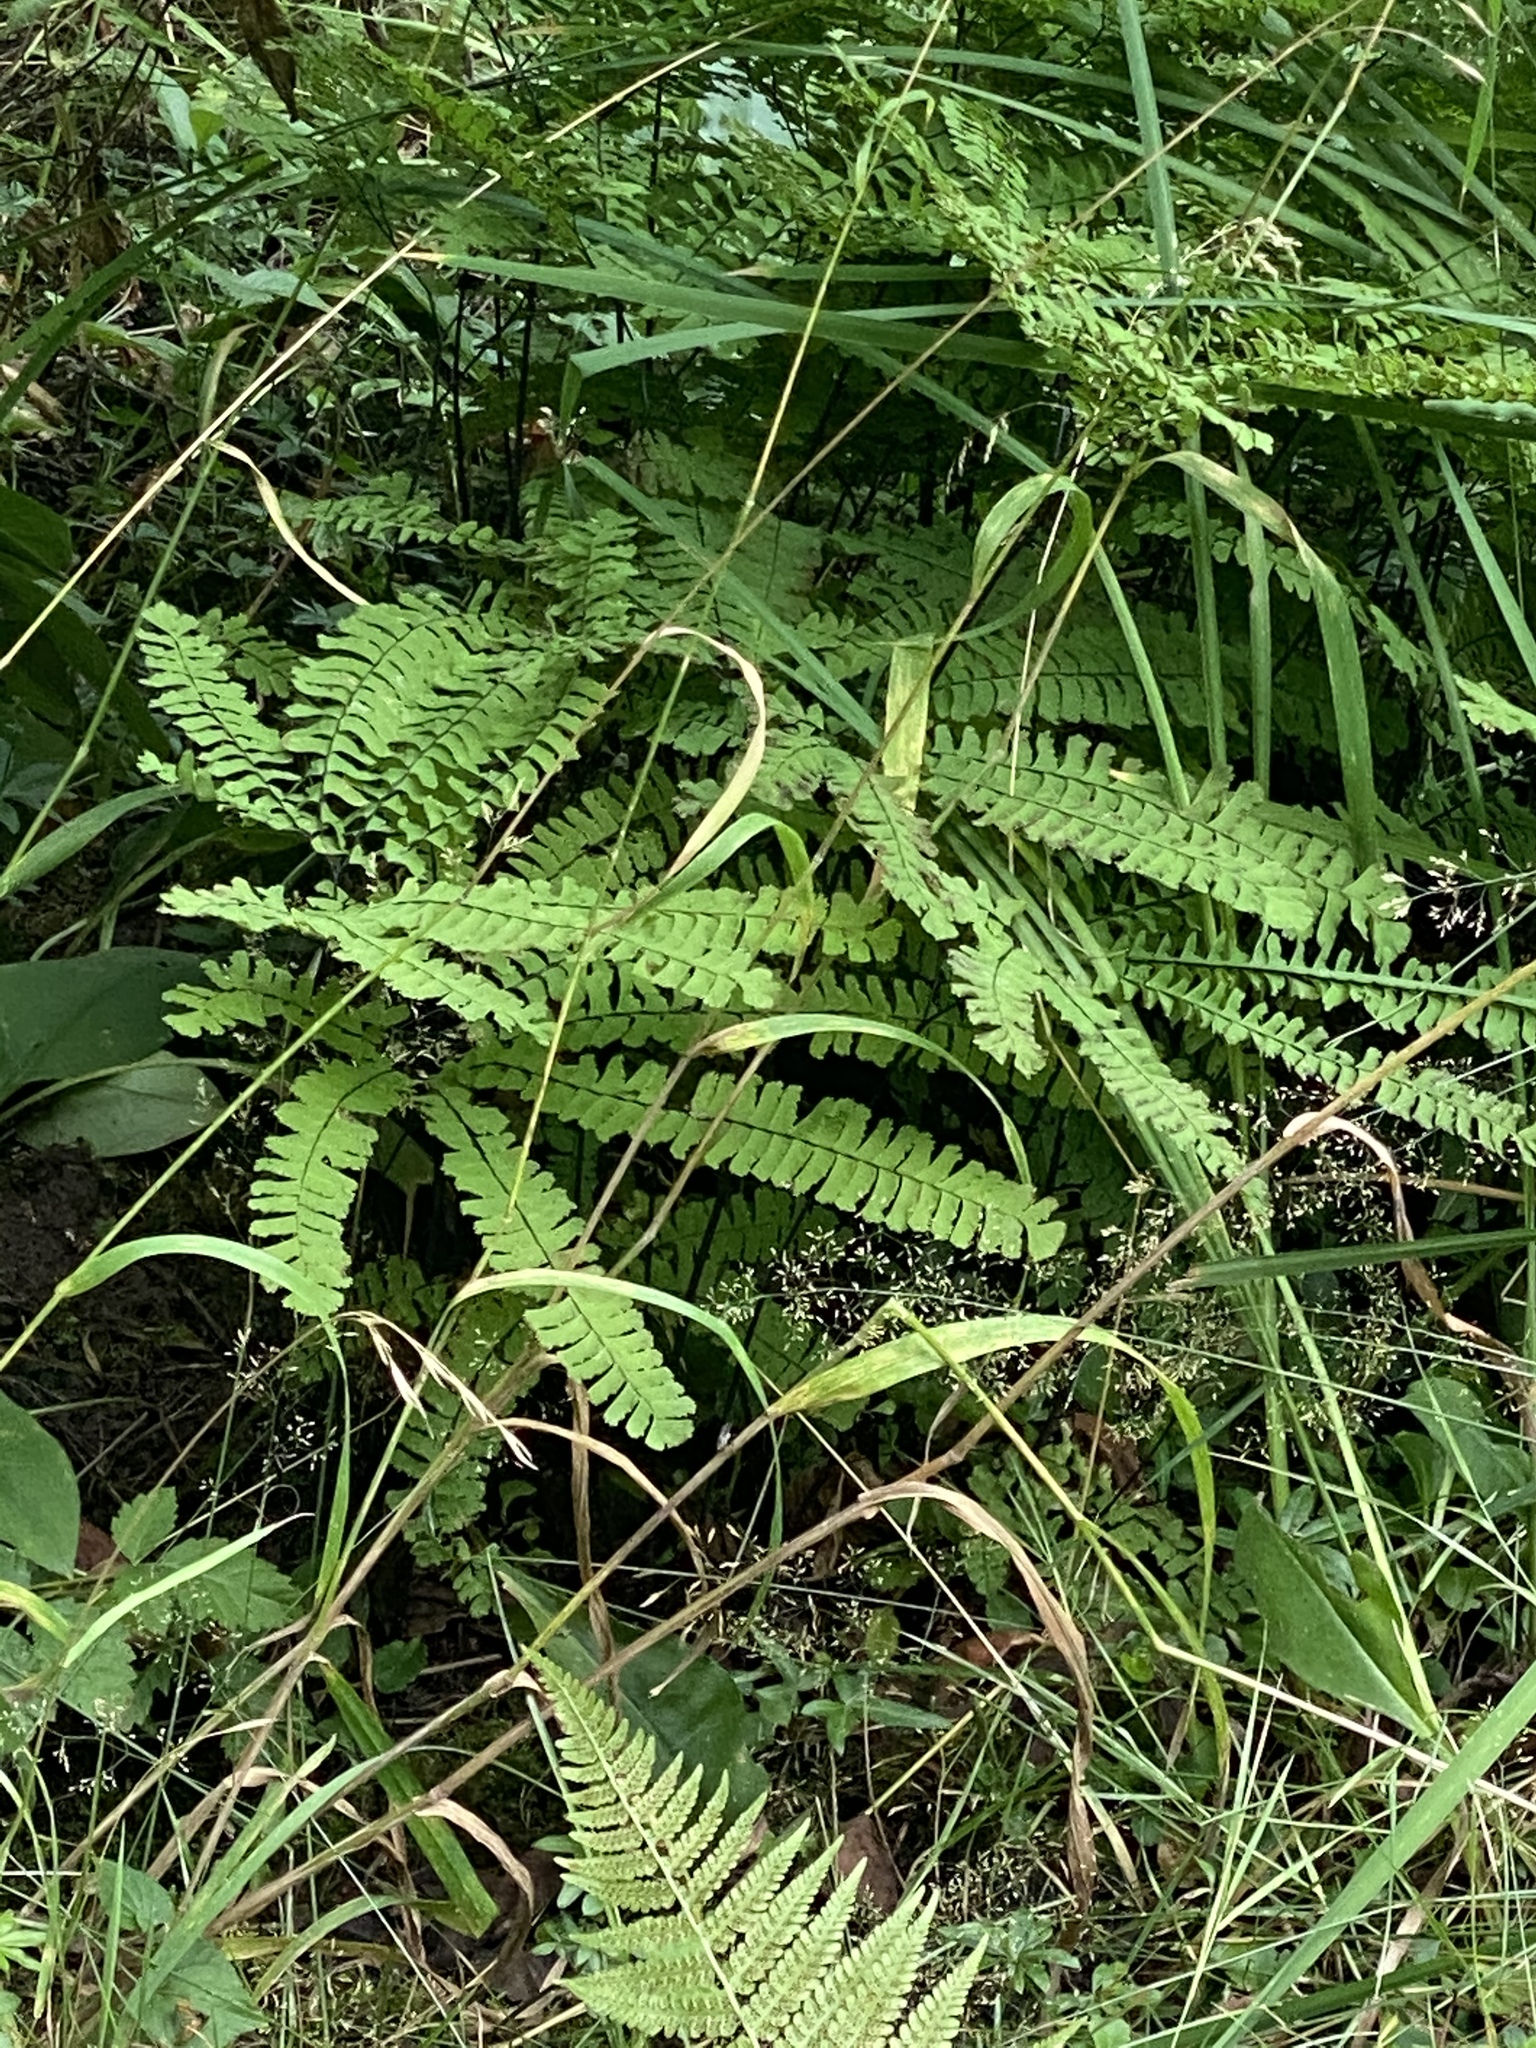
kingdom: Plantae
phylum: Tracheophyta
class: Polypodiopsida
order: Polypodiales
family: Pteridaceae
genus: Adiantum
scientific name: Adiantum aleuticum
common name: Aleutian maidenhair fern
